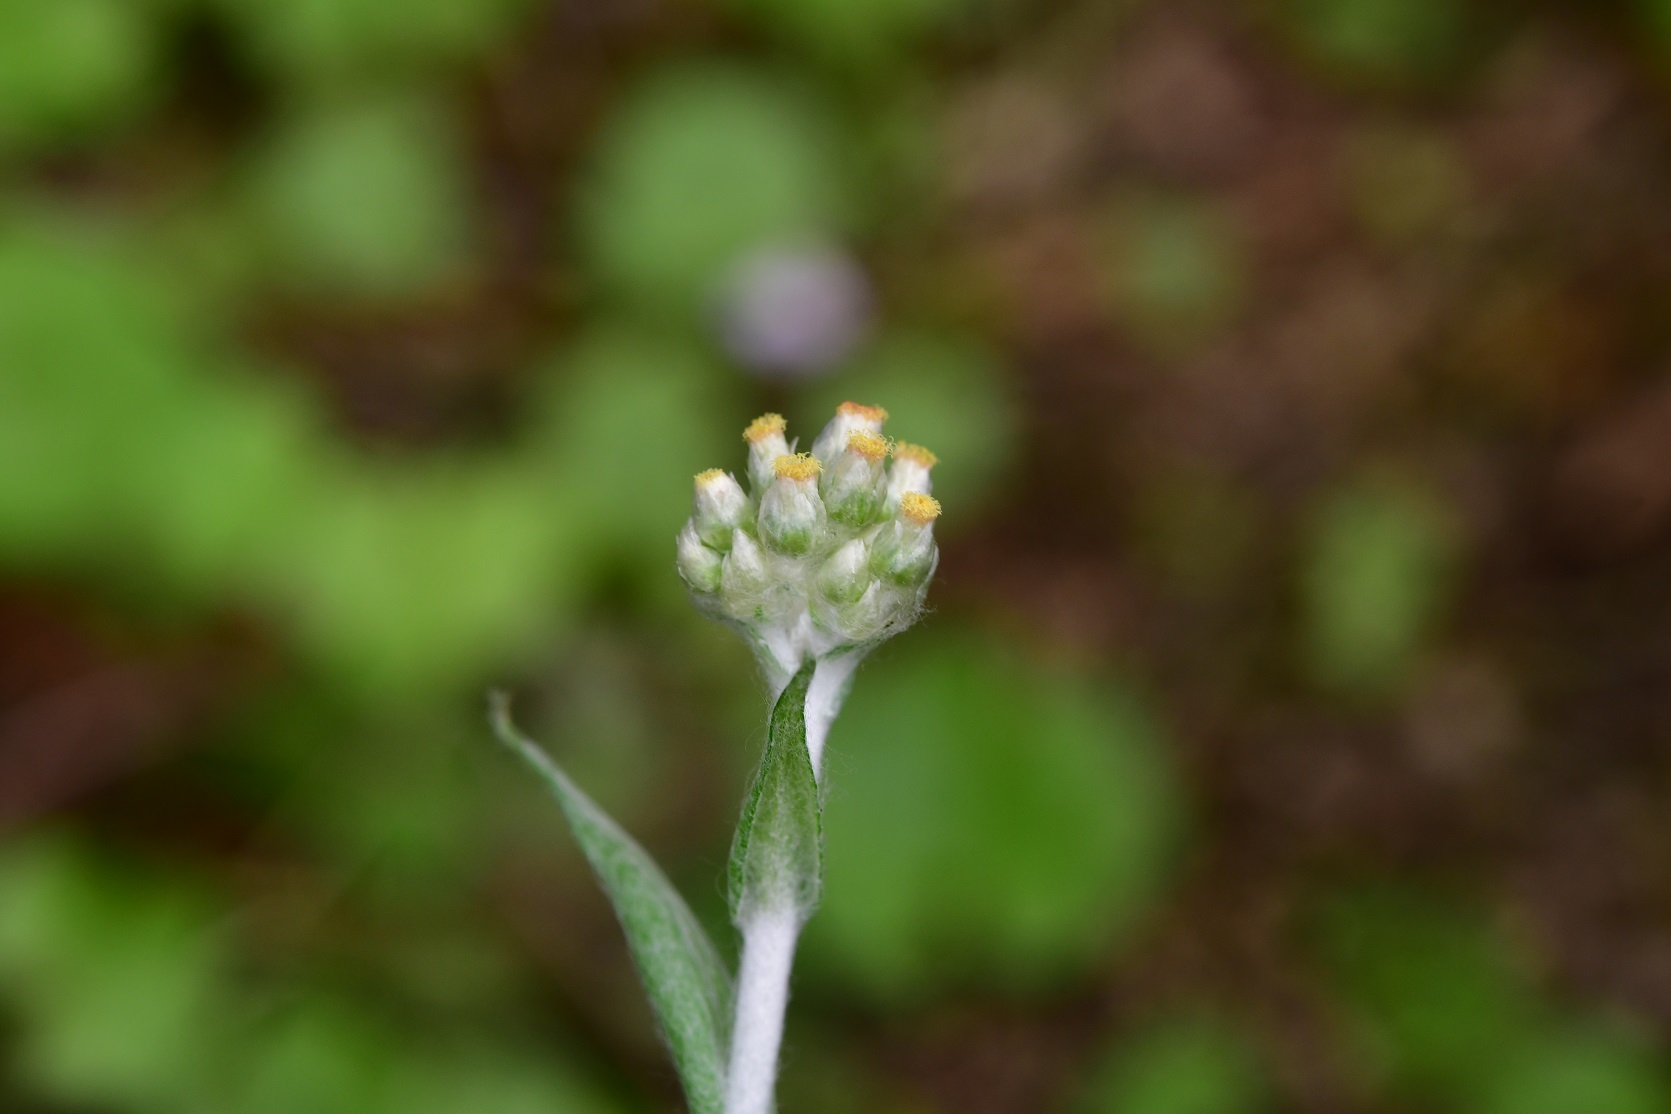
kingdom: Plantae
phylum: Tracheophyta
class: Magnoliopsida
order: Asterales
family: Asteraceae
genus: Helichrysum
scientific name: Helichrysum luteoalbum
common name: Daisy
